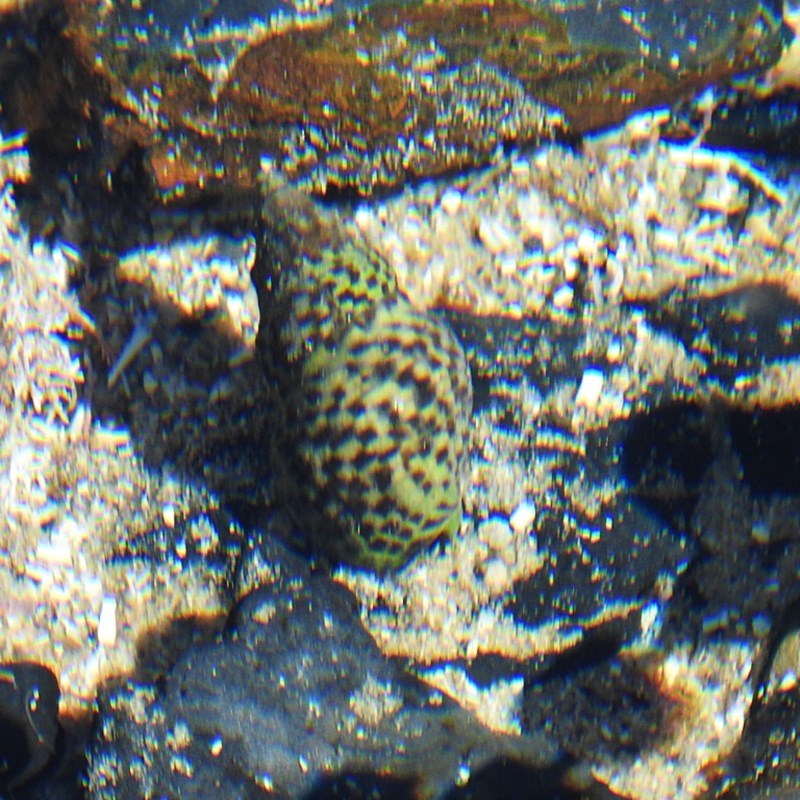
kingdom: Animalia
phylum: Mollusca
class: Gastropoda
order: Neogastropoda
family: Cominellidae
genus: Cominella
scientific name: Cominella lineolata
